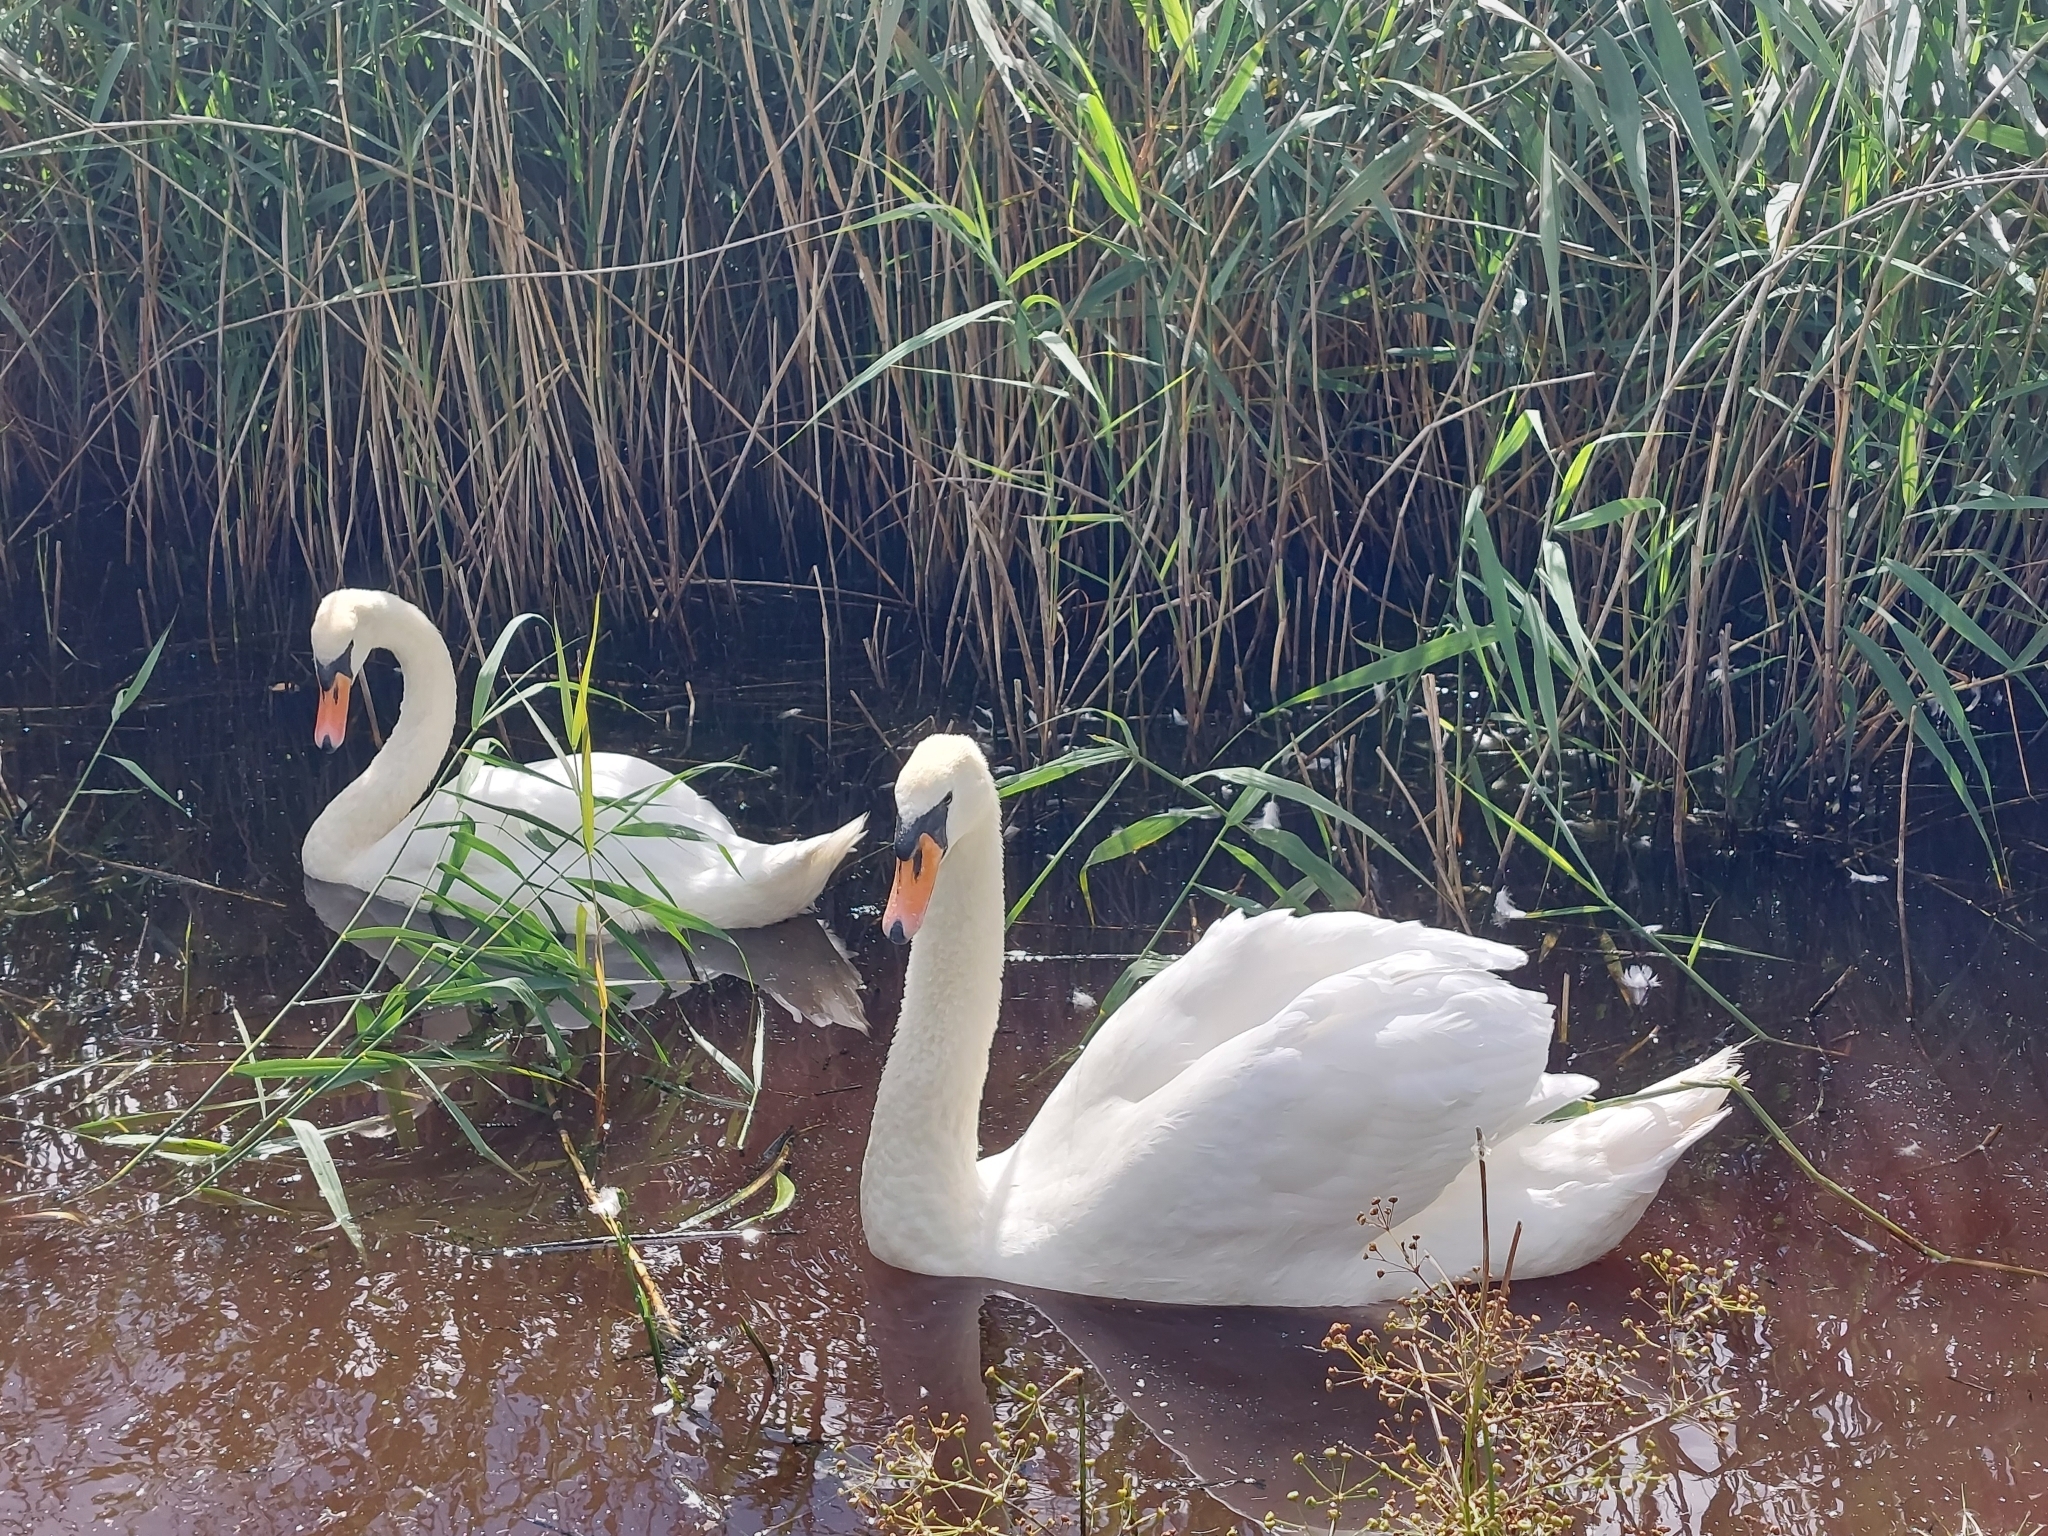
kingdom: Animalia
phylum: Chordata
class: Aves
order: Anseriformes
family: Anatidae
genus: Cygnus
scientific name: Cygnus olor
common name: Mute swan
